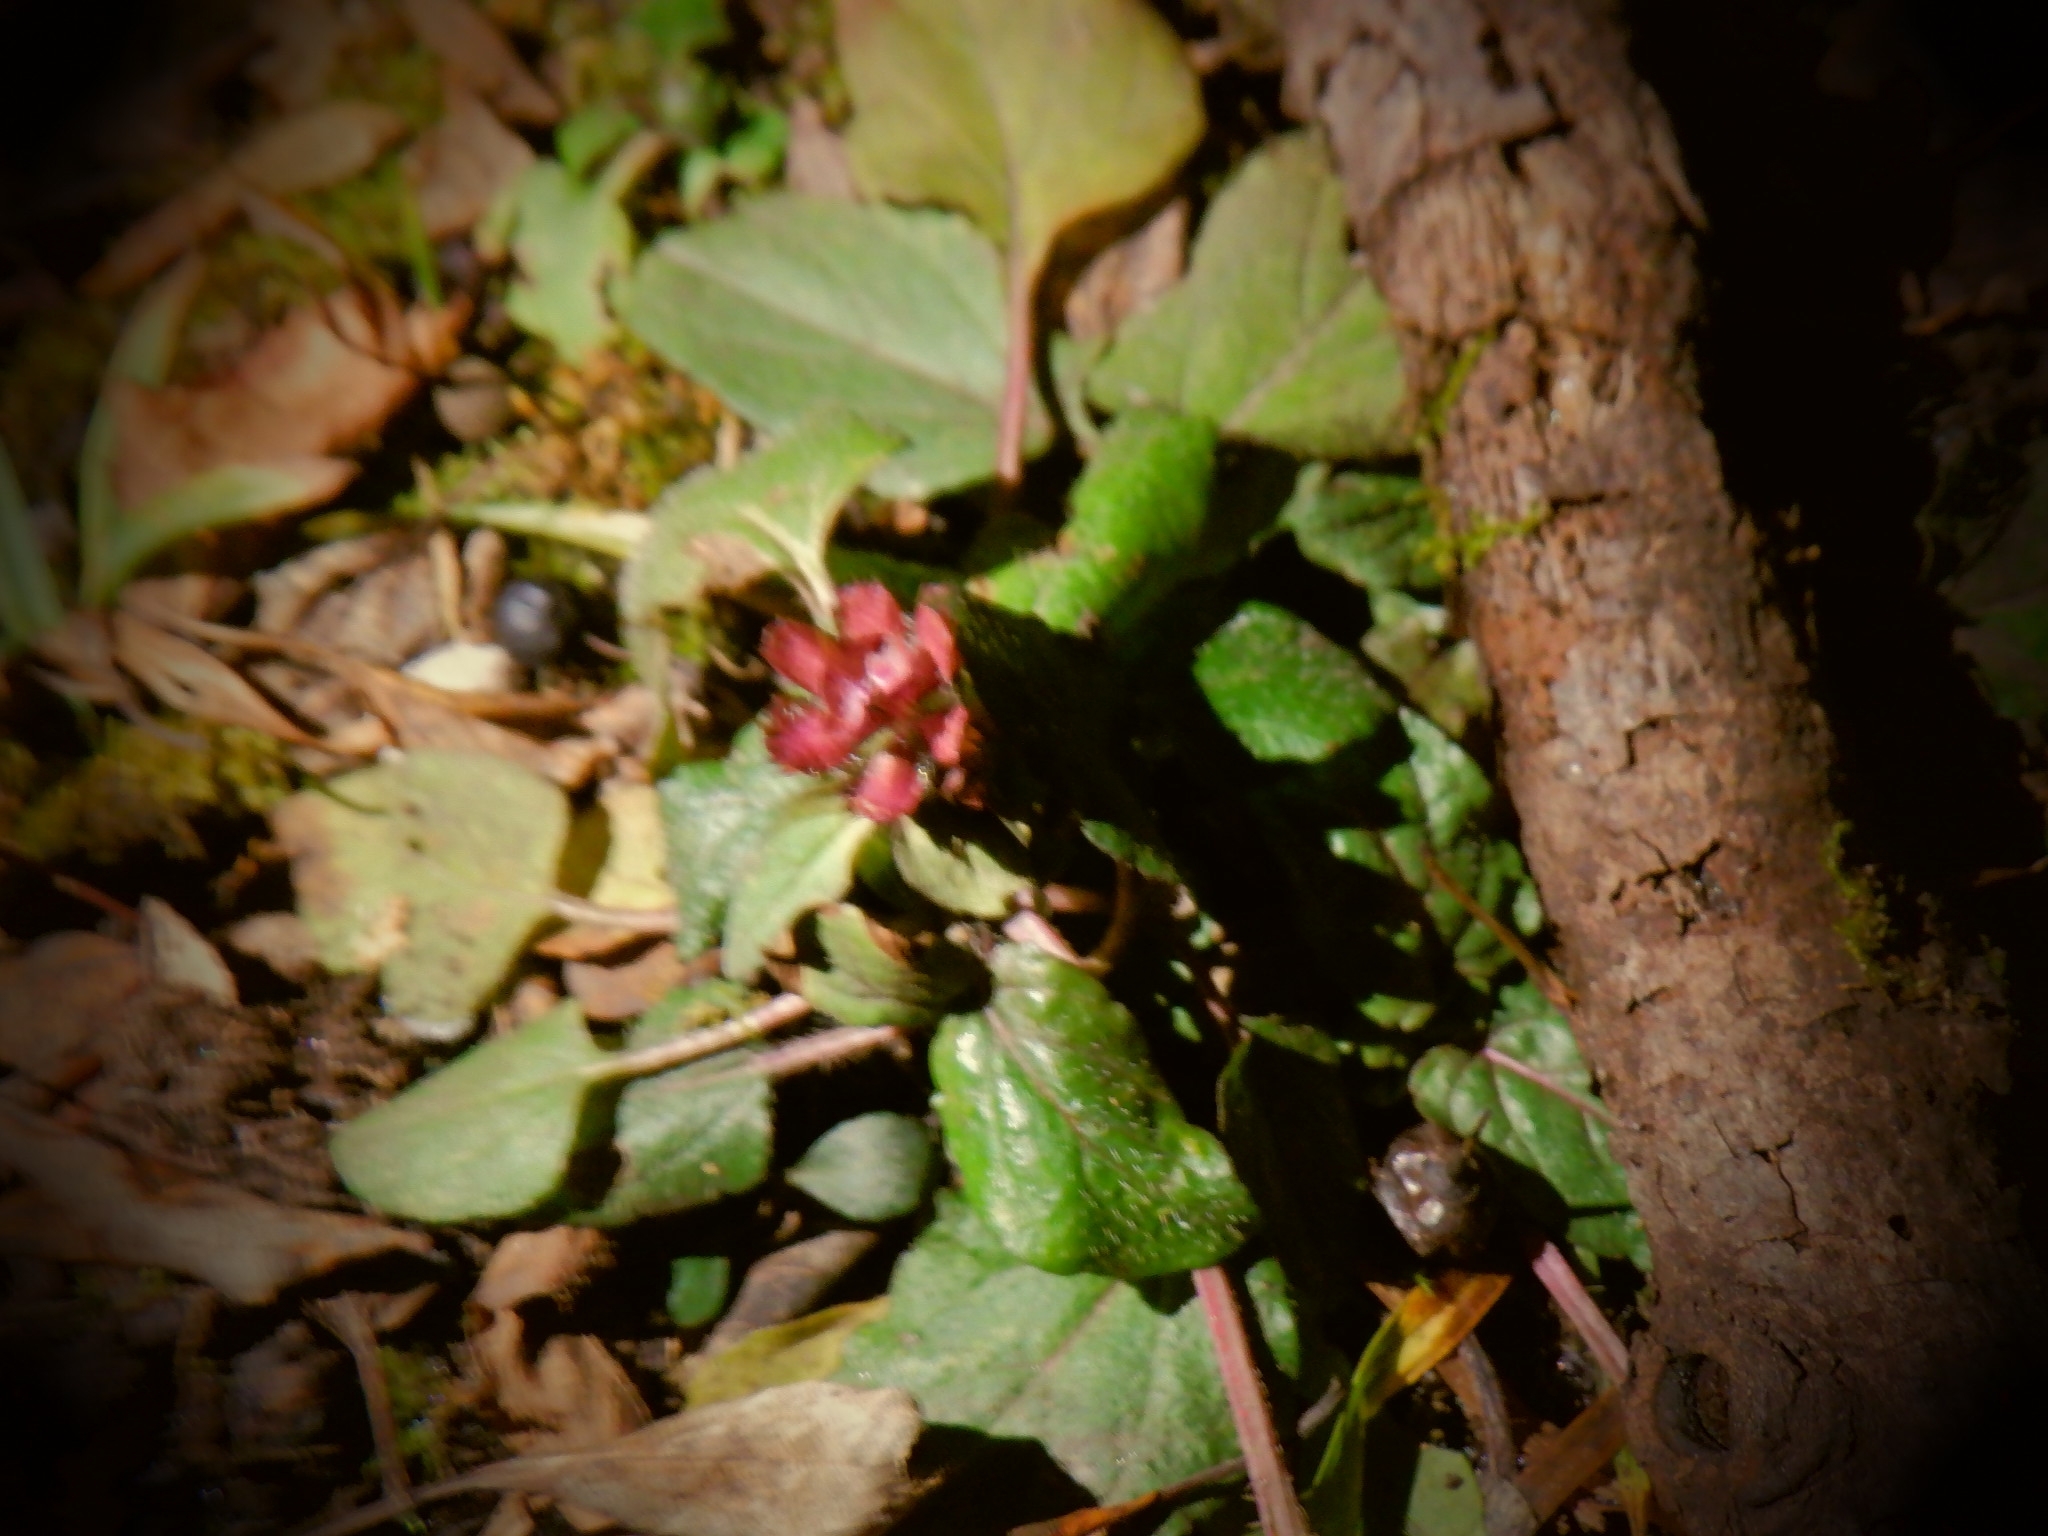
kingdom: Plantae
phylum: Tracheophyta
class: Magnoliopsida
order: Lamiales
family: Lamiaceae
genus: Prunella
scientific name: Prunella vulgaris
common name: Heal-all
